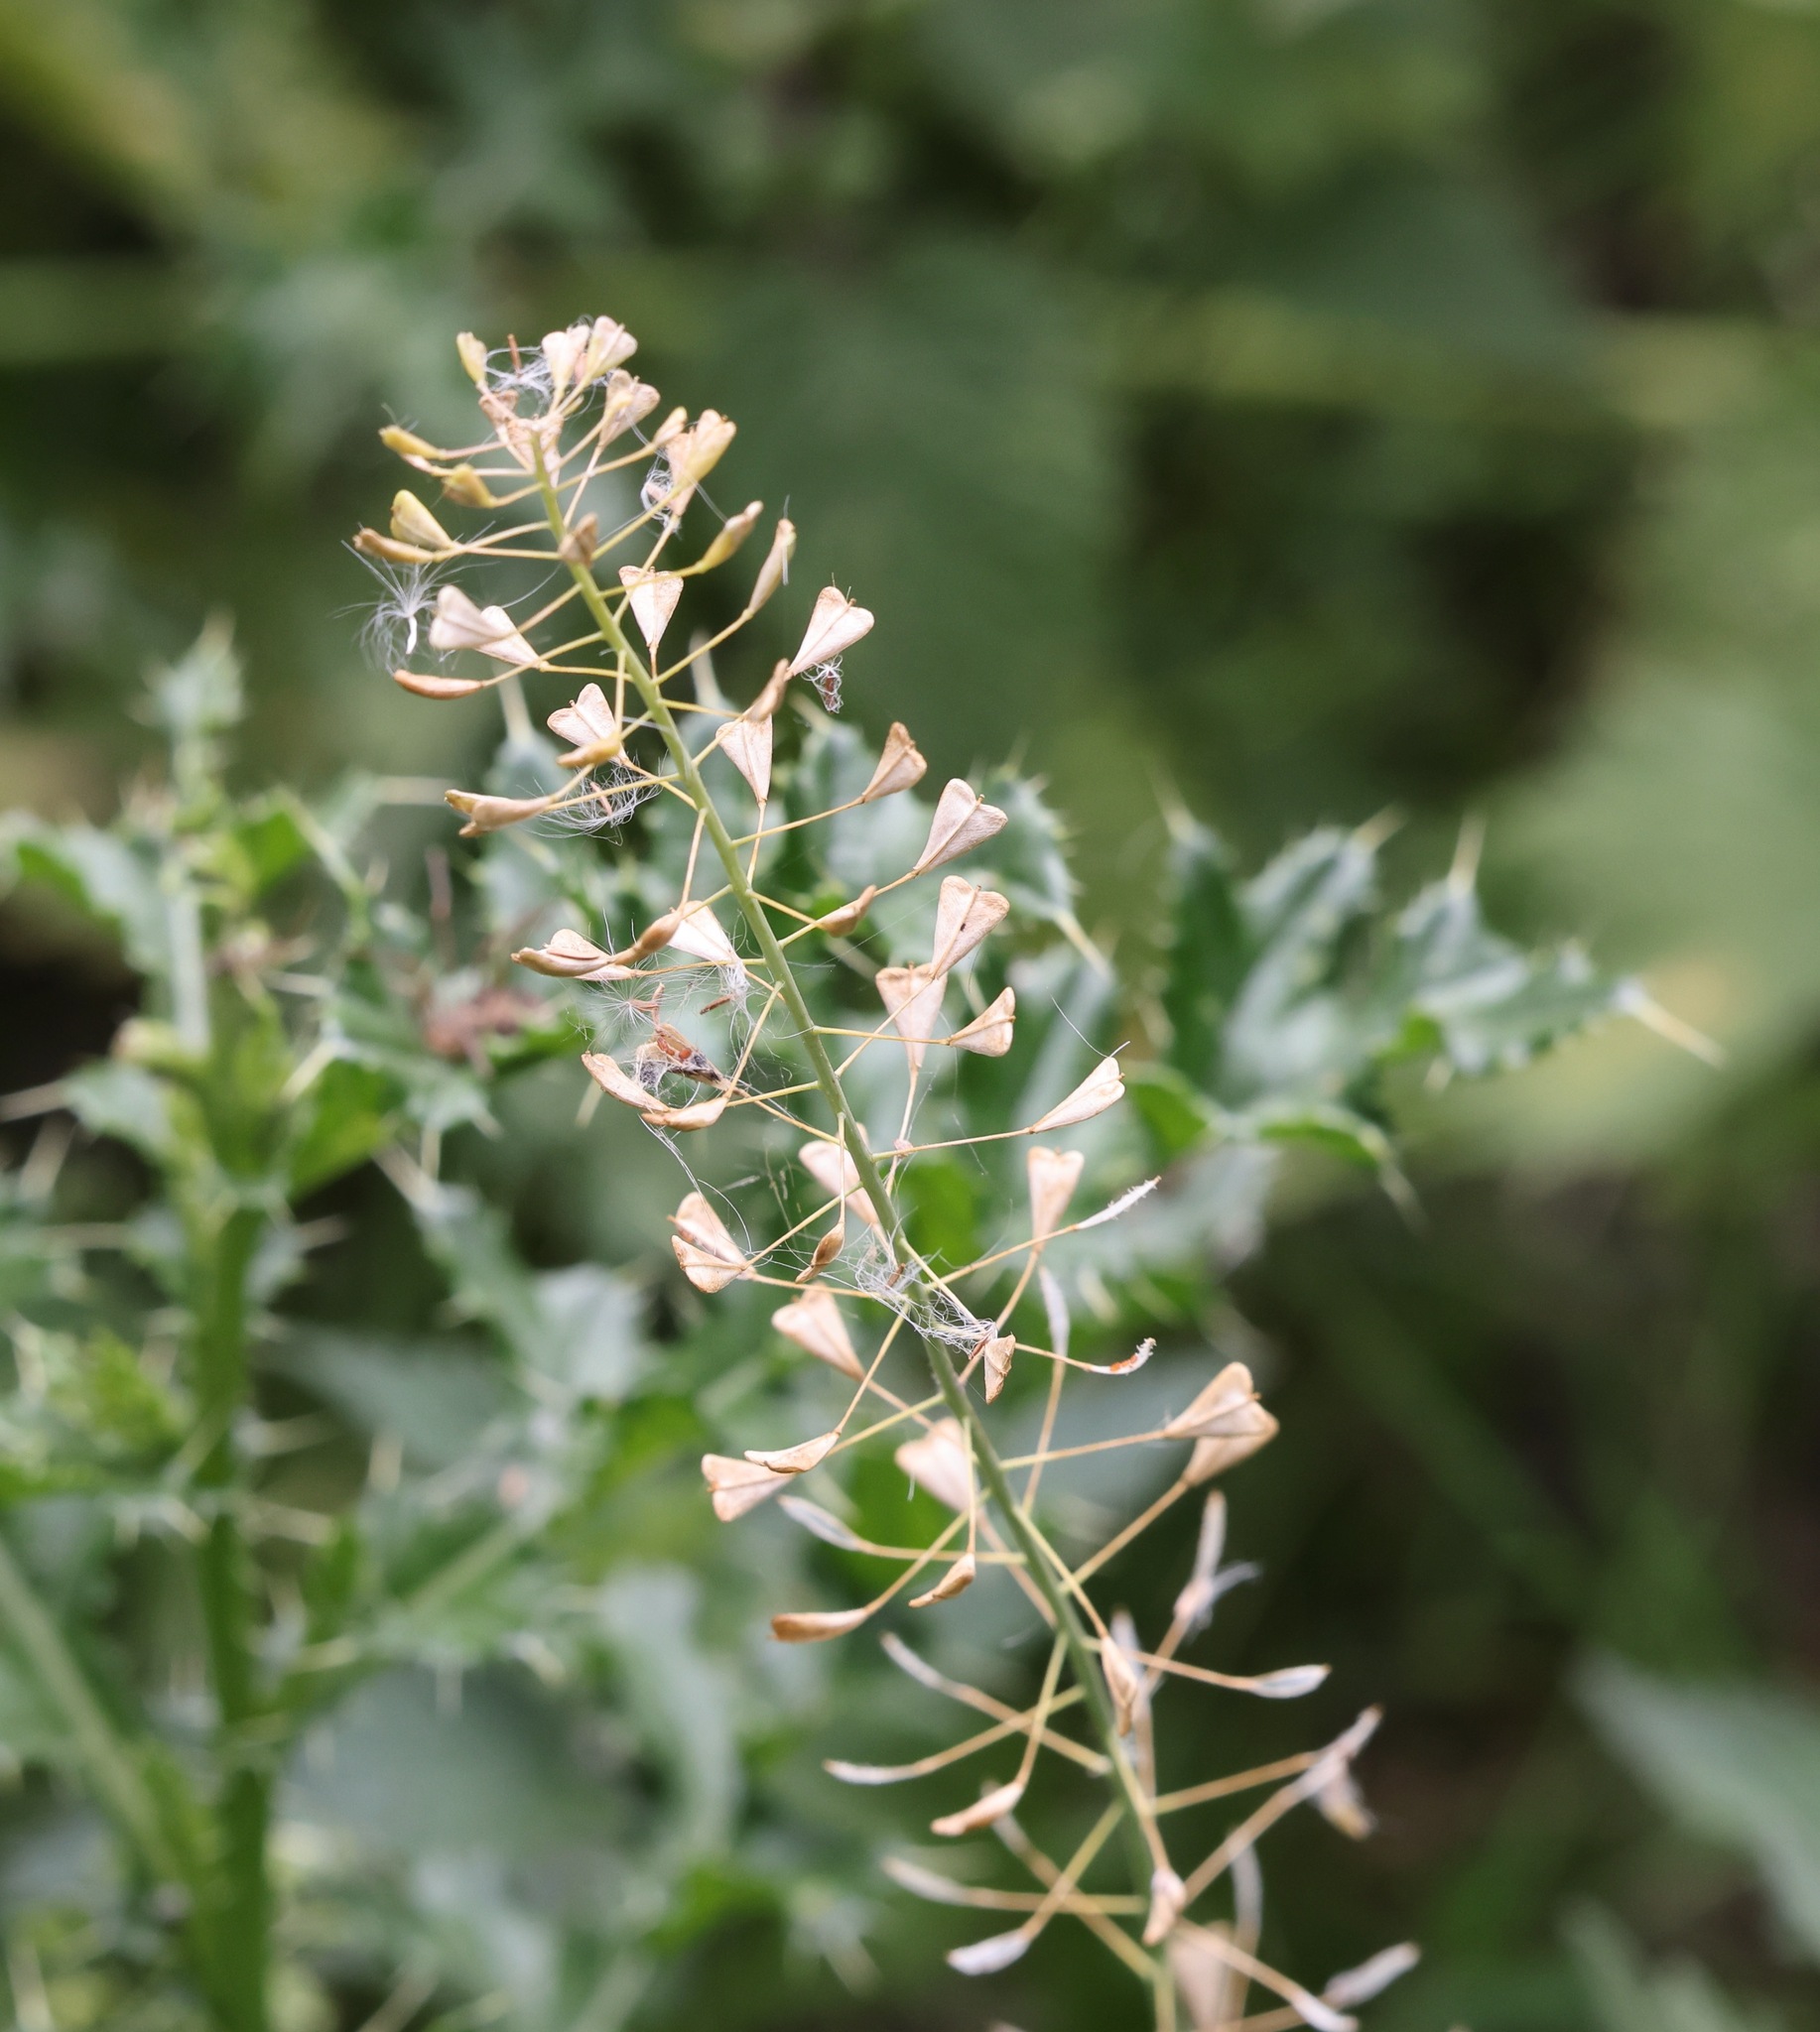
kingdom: Plantae
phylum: Tracheophyta
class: Magnoliopsida
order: Brassicales
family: Brassicaceae
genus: Capsella
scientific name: Capsella bursa-pastoris
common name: Shepherd's purse
